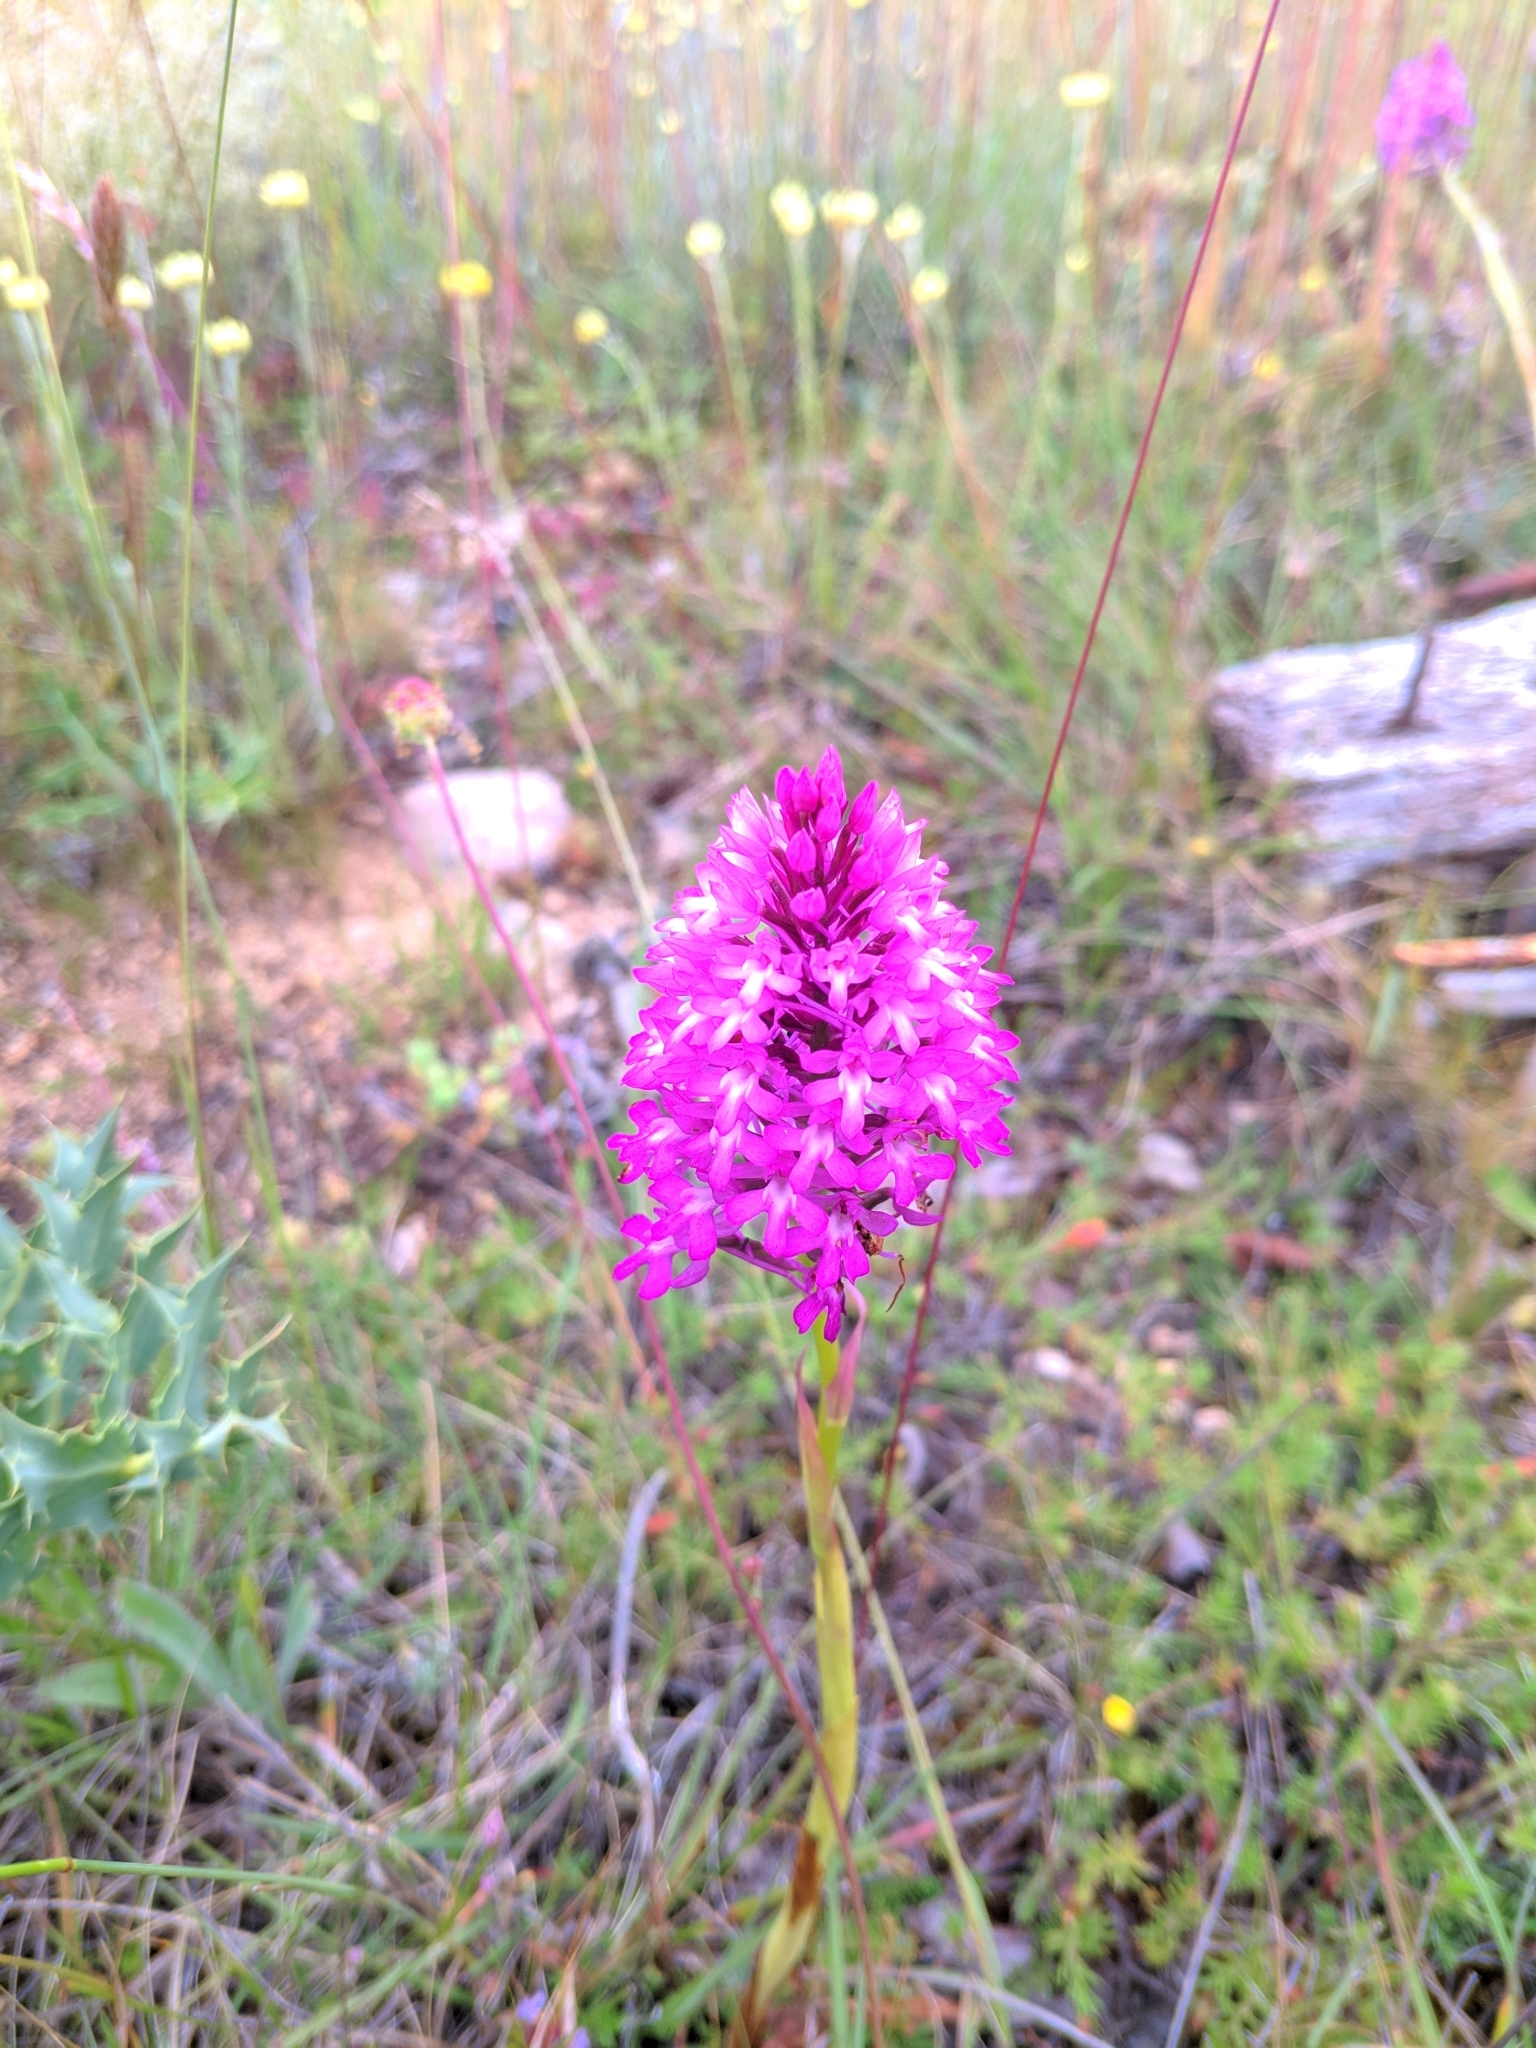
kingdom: Plantae
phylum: Tracheophyta
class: Liliopsida
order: Asparagales
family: Orchidaceae
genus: Anacamptis
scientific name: Anacamptis pyramidalis
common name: Pyramidal orchid
